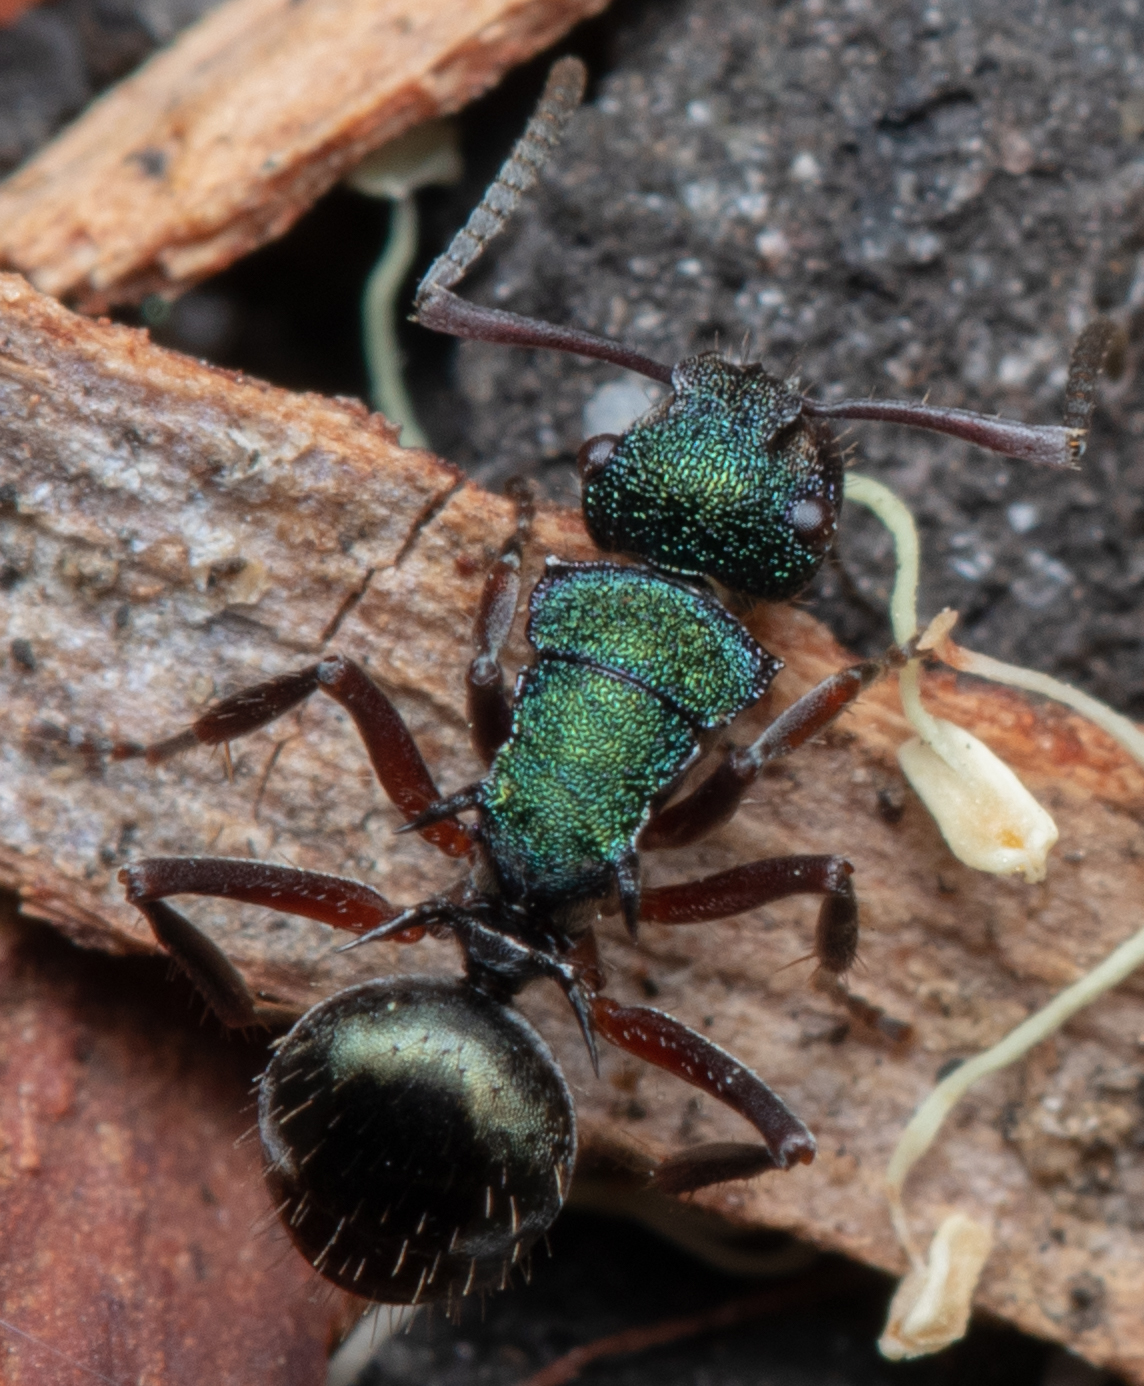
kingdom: Animalia
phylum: Arthropoda
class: Insecta
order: Hymenoptera
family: Formicidae
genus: Polyrhachis
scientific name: Polyrhachis hookeri
